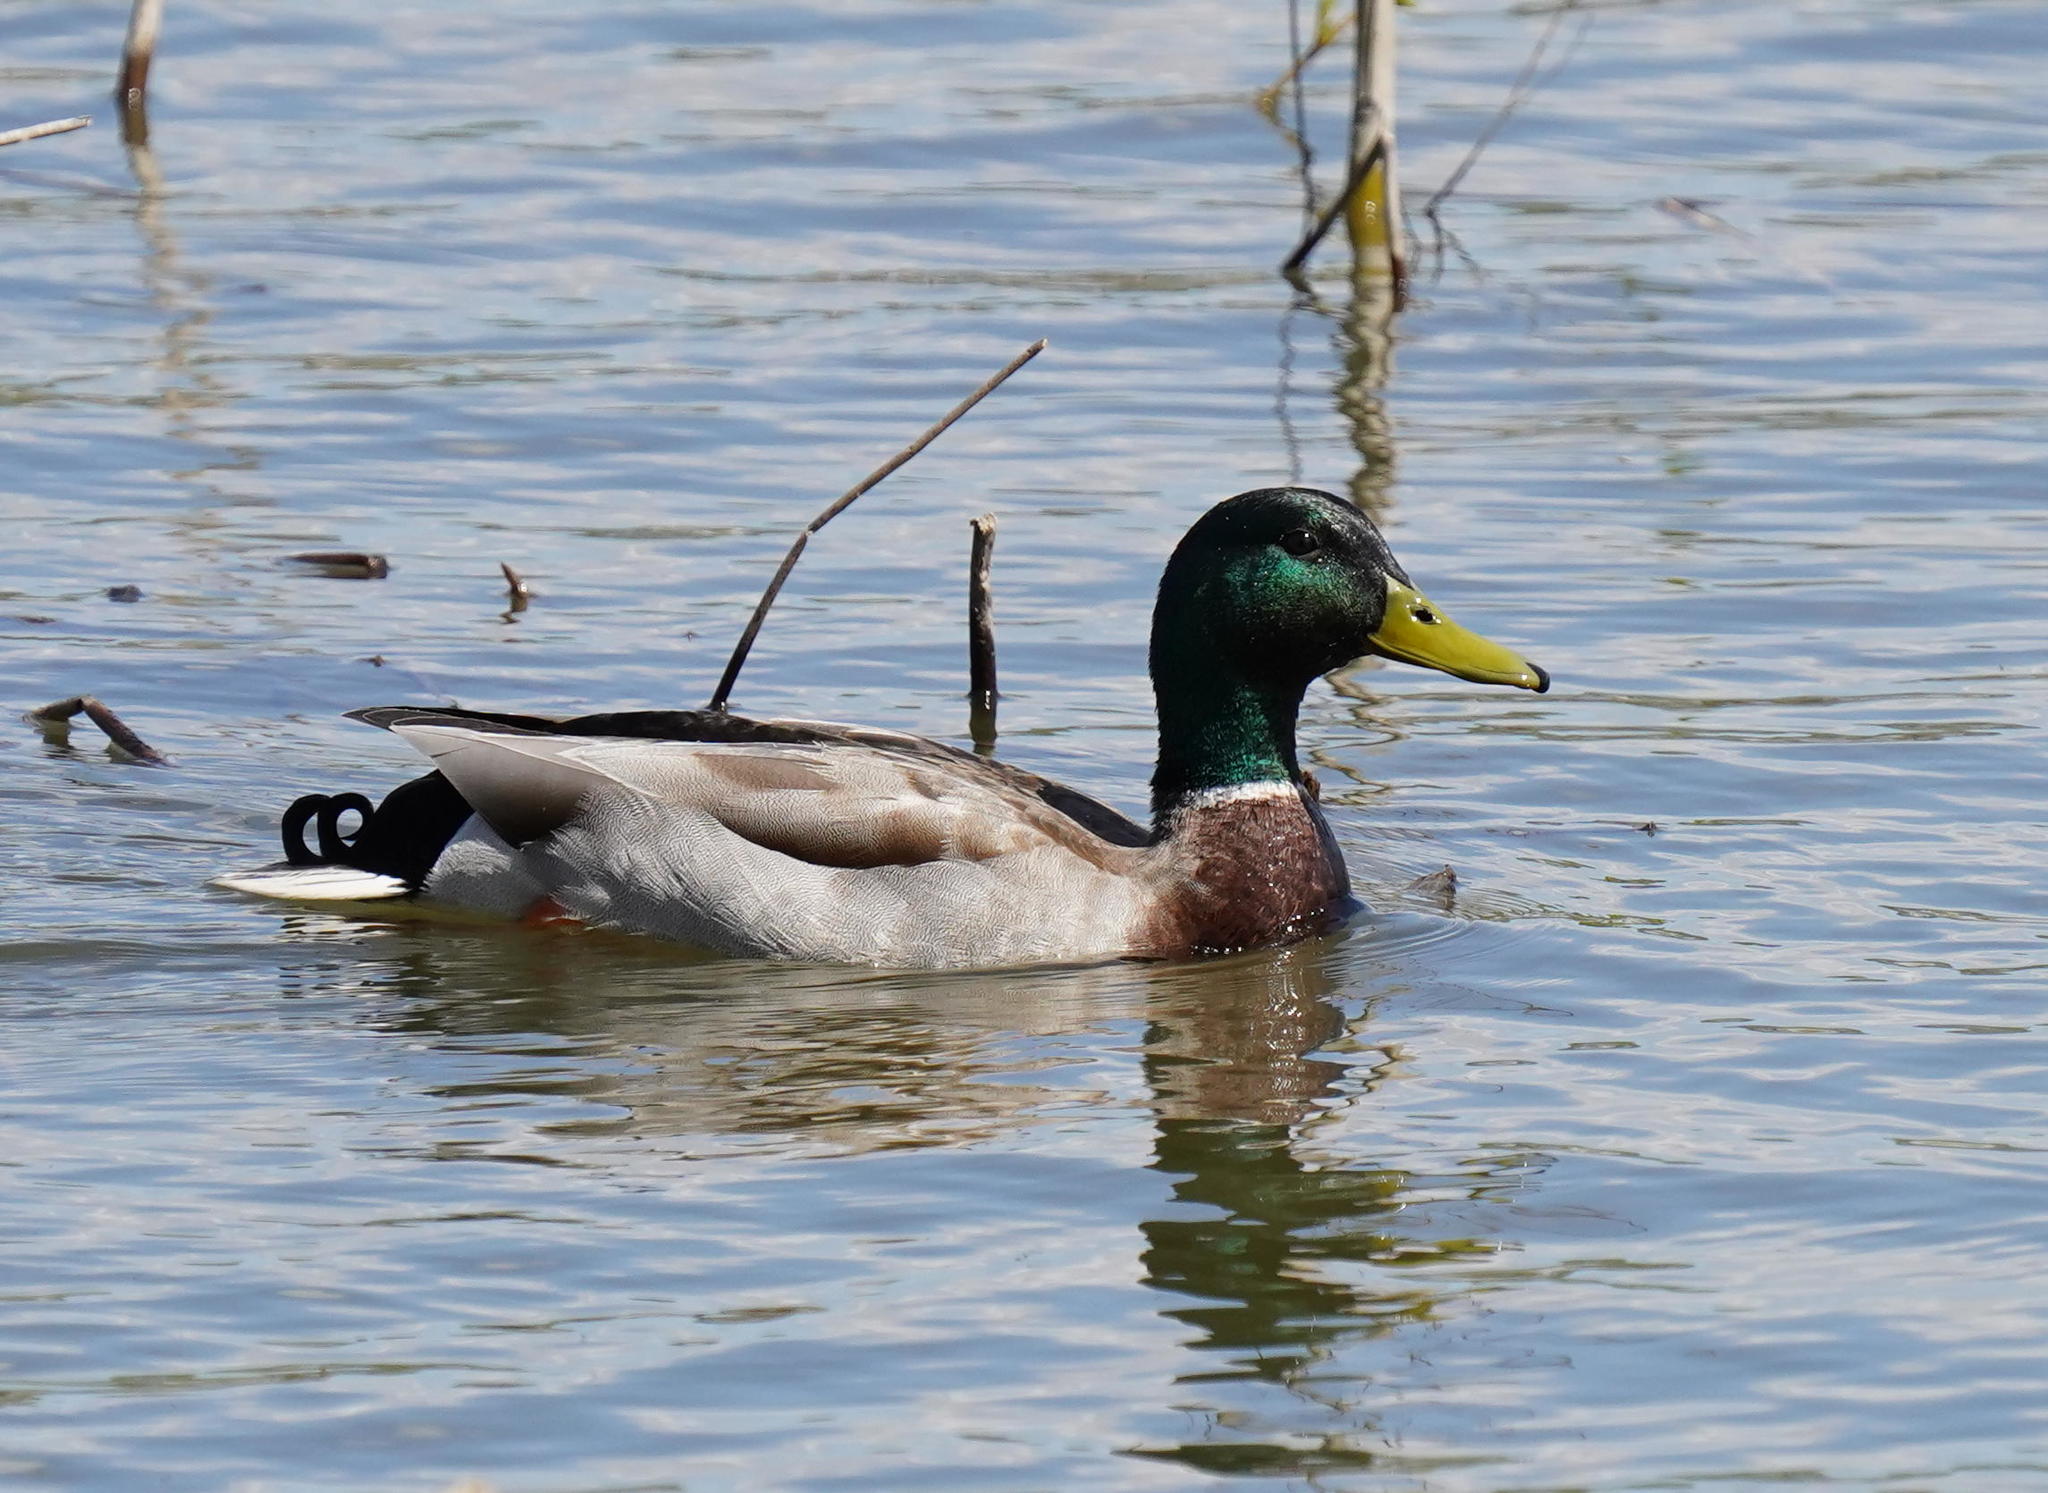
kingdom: Animalia
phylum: Chordata
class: Aves
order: Anseriformes
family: Anatidae
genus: Anas
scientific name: Anas platyrhynchos
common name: Mallard
